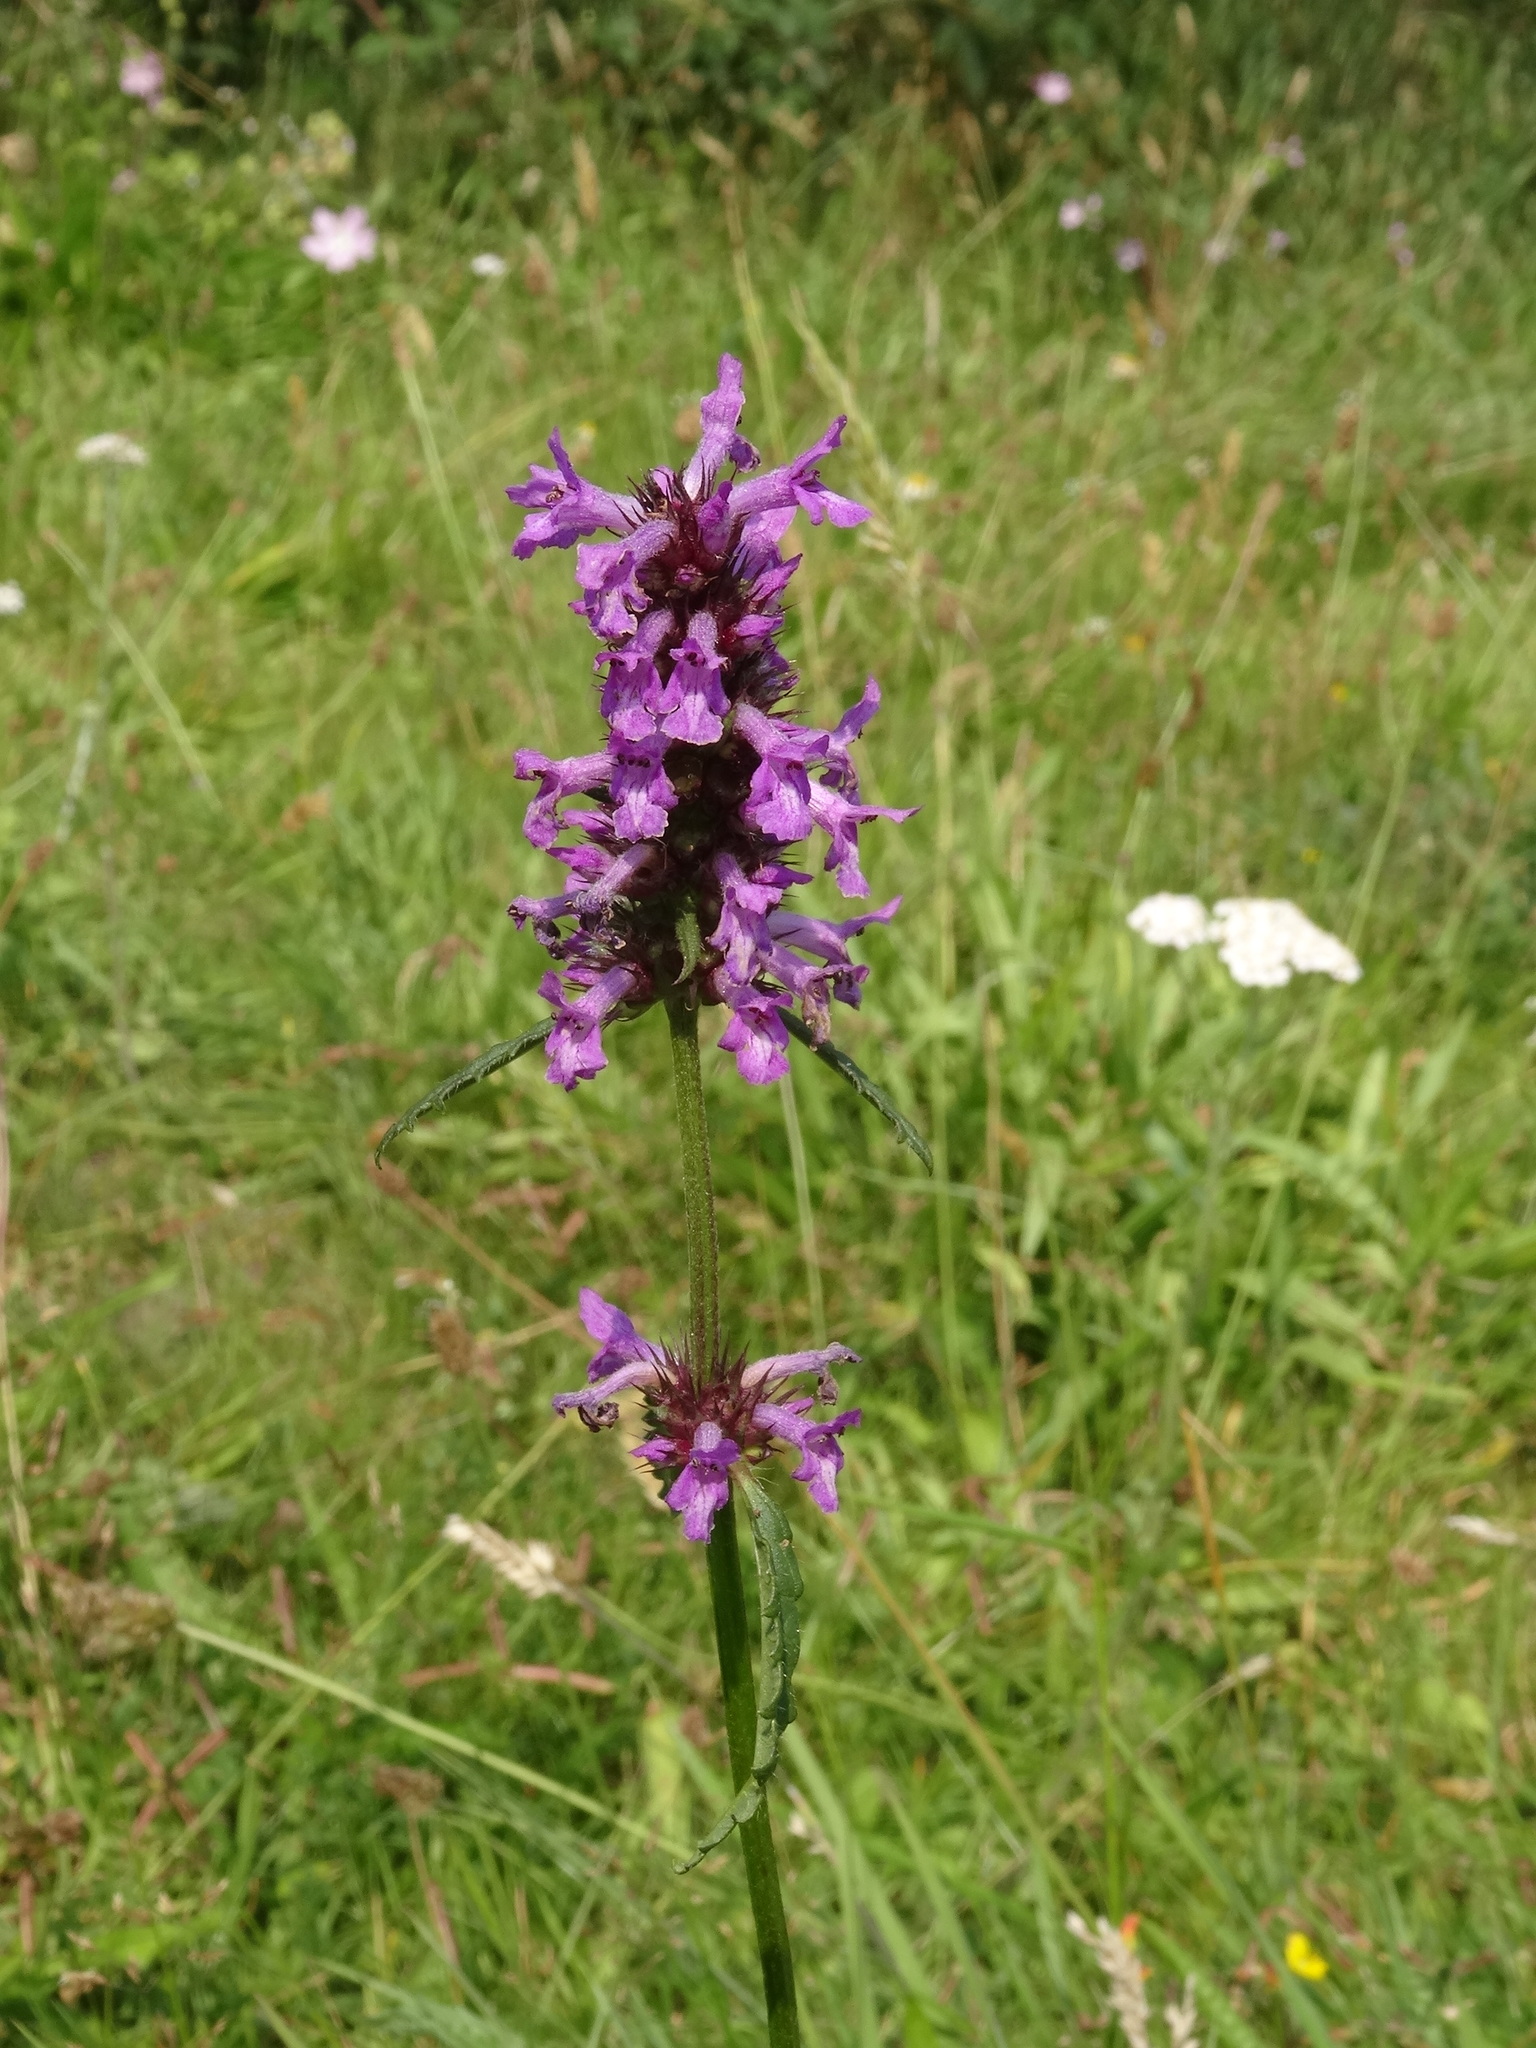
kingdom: Plantae
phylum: Tracheophyta
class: Magnoliopsida
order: Lamiales
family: Lamiaceae
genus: Betonica
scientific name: Betonica officinalis
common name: Bishop's-wort
